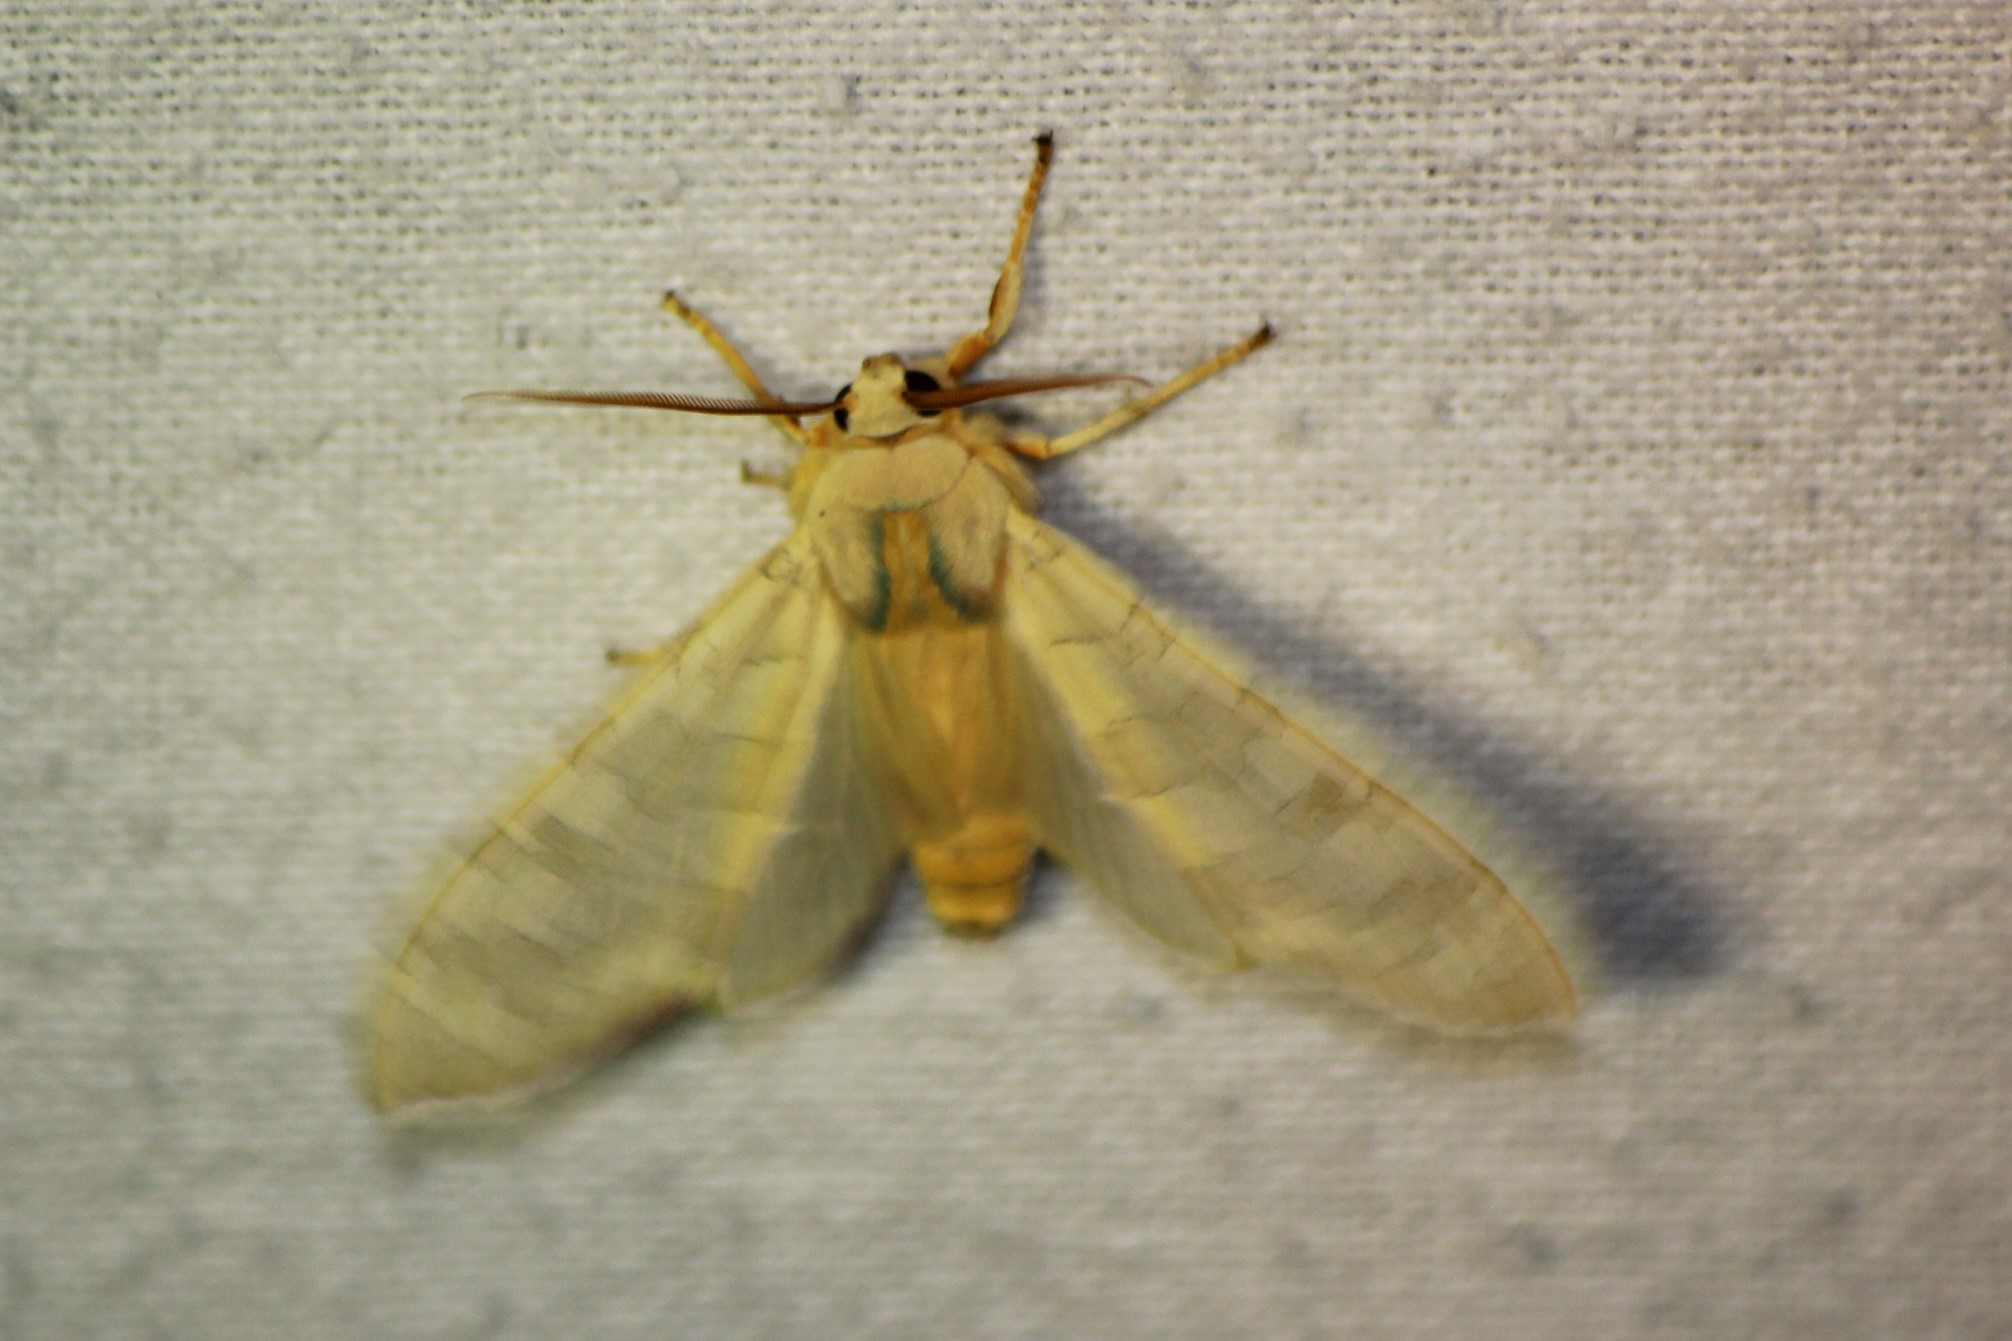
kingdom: Animalia
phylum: Arthropoda
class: Insecta
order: Lepidoptera
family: Erebidae
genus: Halysidota
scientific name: Halysidota tessellaris
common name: Banded tussock moth
